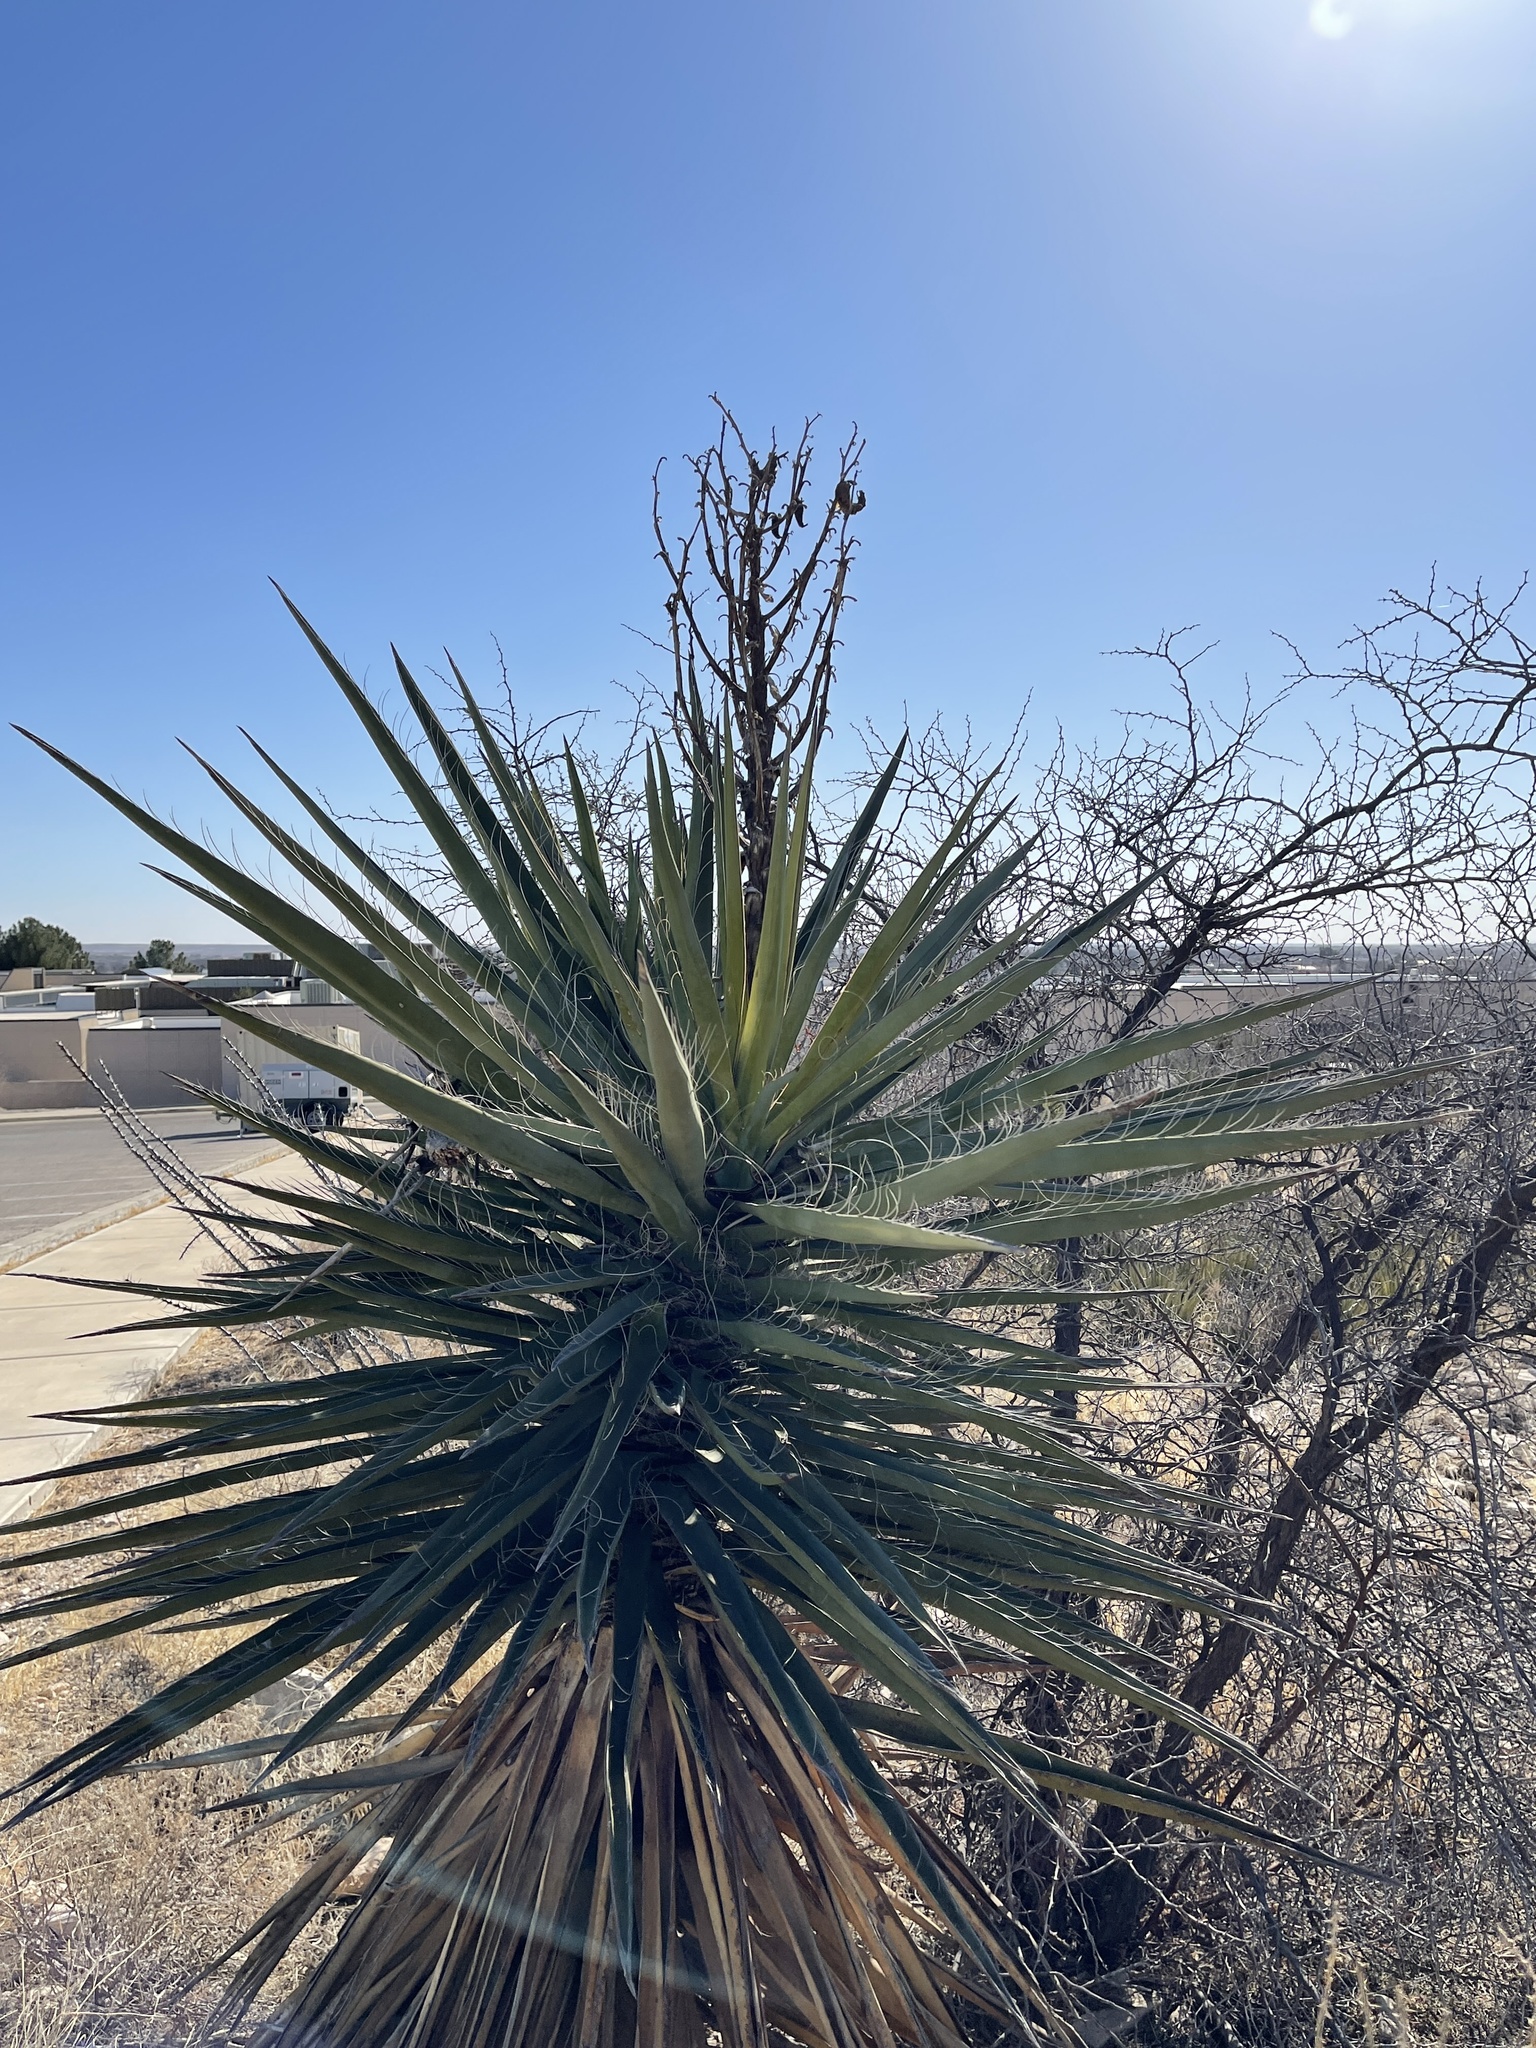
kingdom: Plantae
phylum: Tracheophyta
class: Liliopsida
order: Asparagales
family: Asparagaceae
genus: Yucca
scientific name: Yucca faxoniana
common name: Spanish dagger
